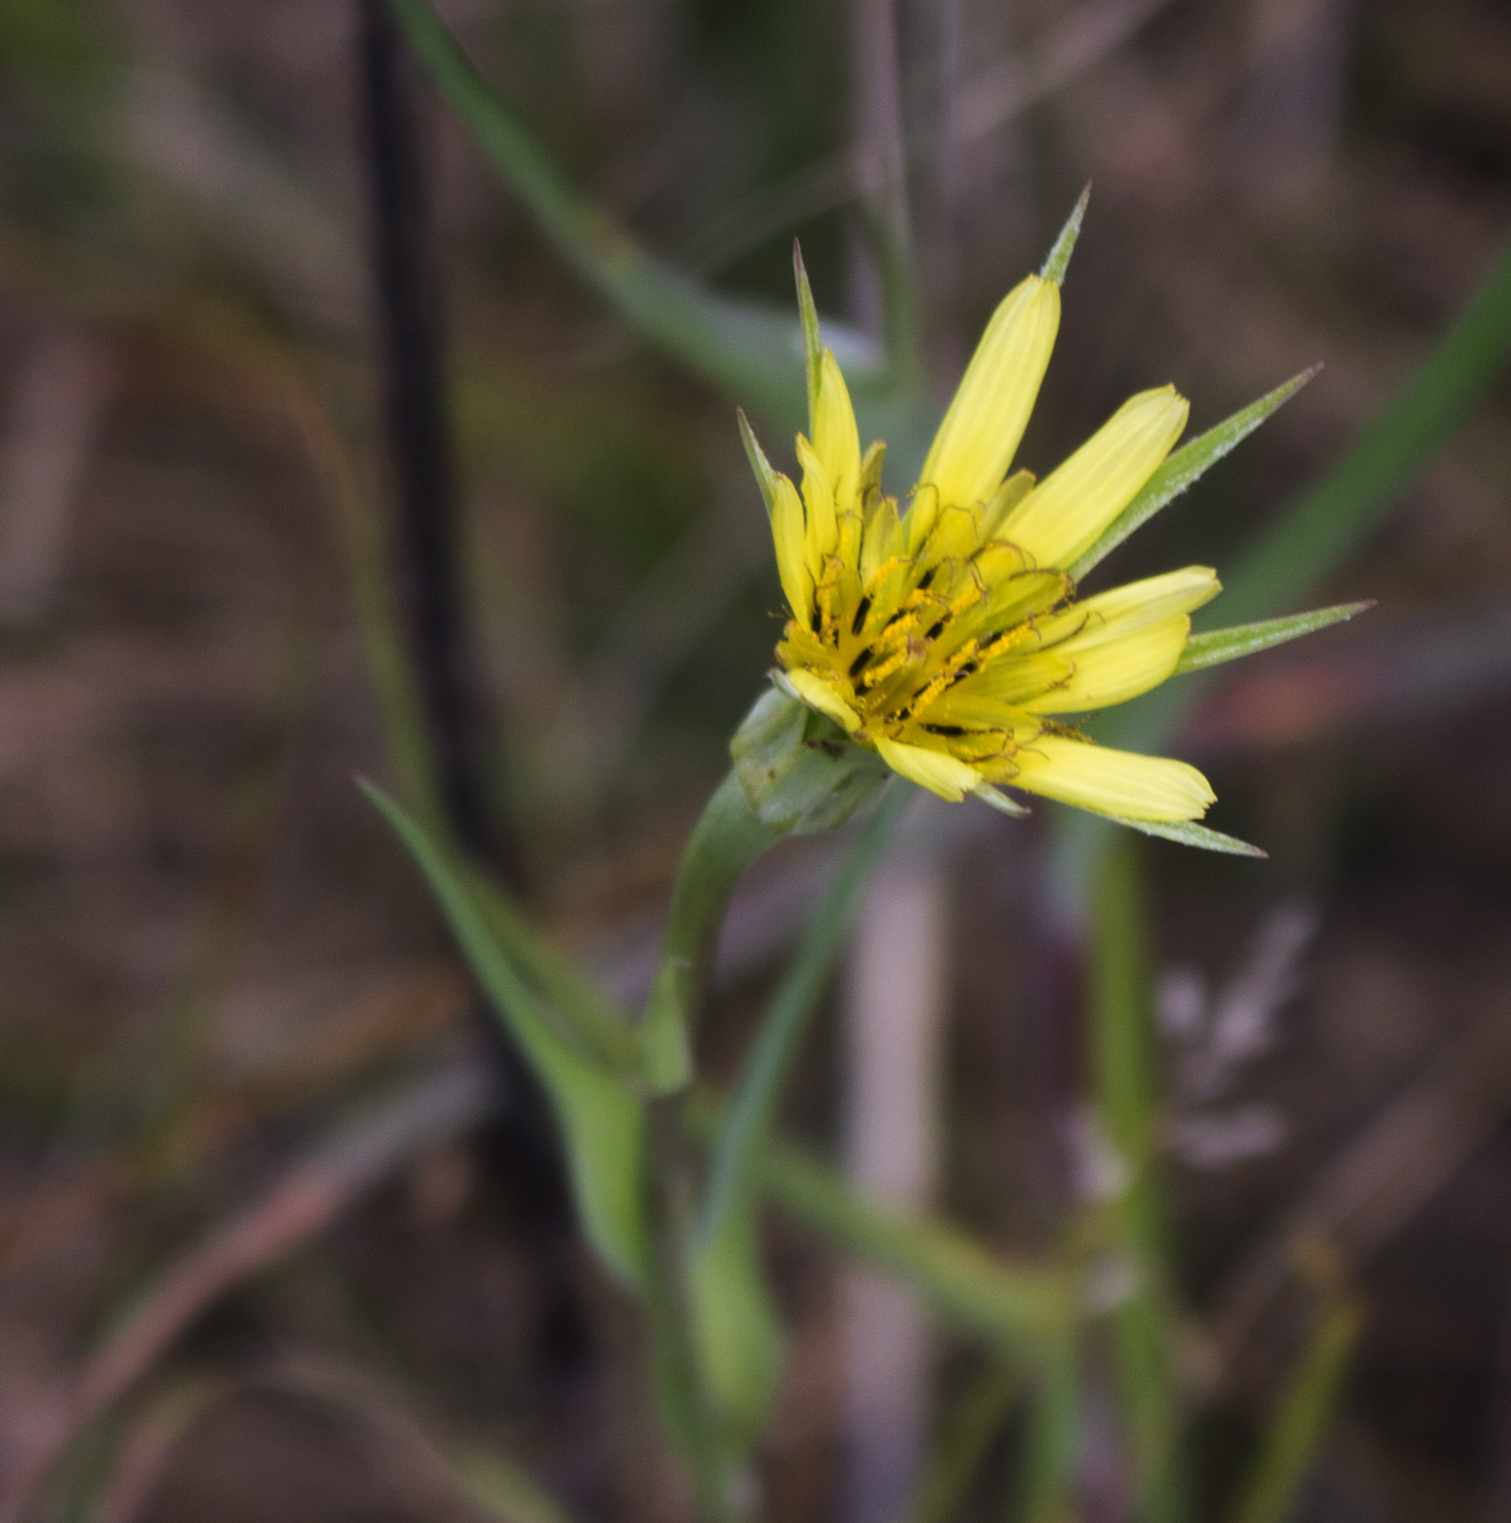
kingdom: Plantae
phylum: Tracheophyta
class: Magnoliopsida
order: Asterales
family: Asteraceae
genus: Tragopogon
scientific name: Tragopogon dubius
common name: Yellow salsify
